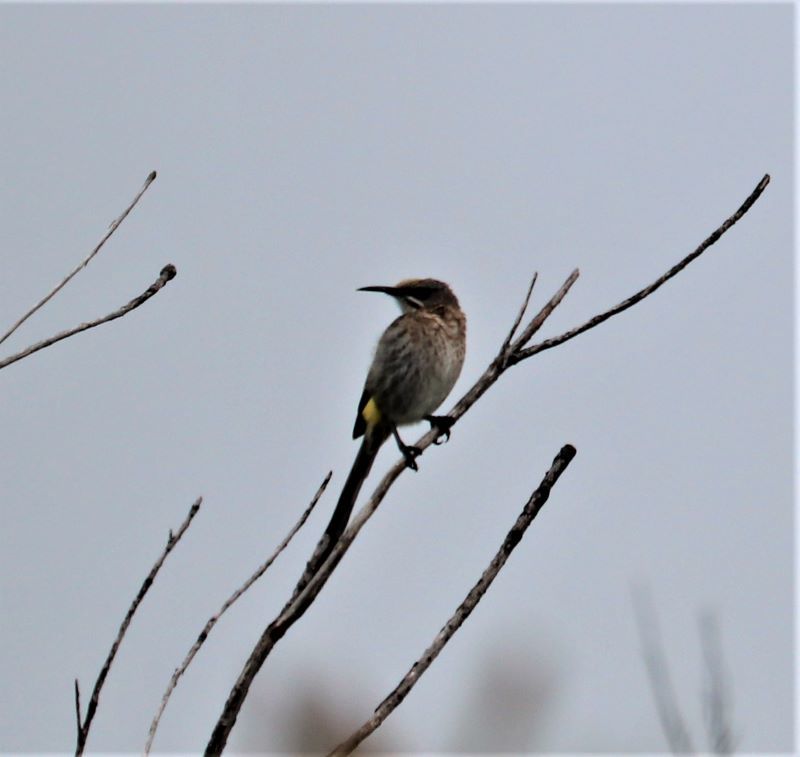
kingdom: Animalia
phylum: Chordata
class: Aves
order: Passeriformes
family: Promeropidae
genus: Promerops
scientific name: Promerops cafer
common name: Cape sugarbird
